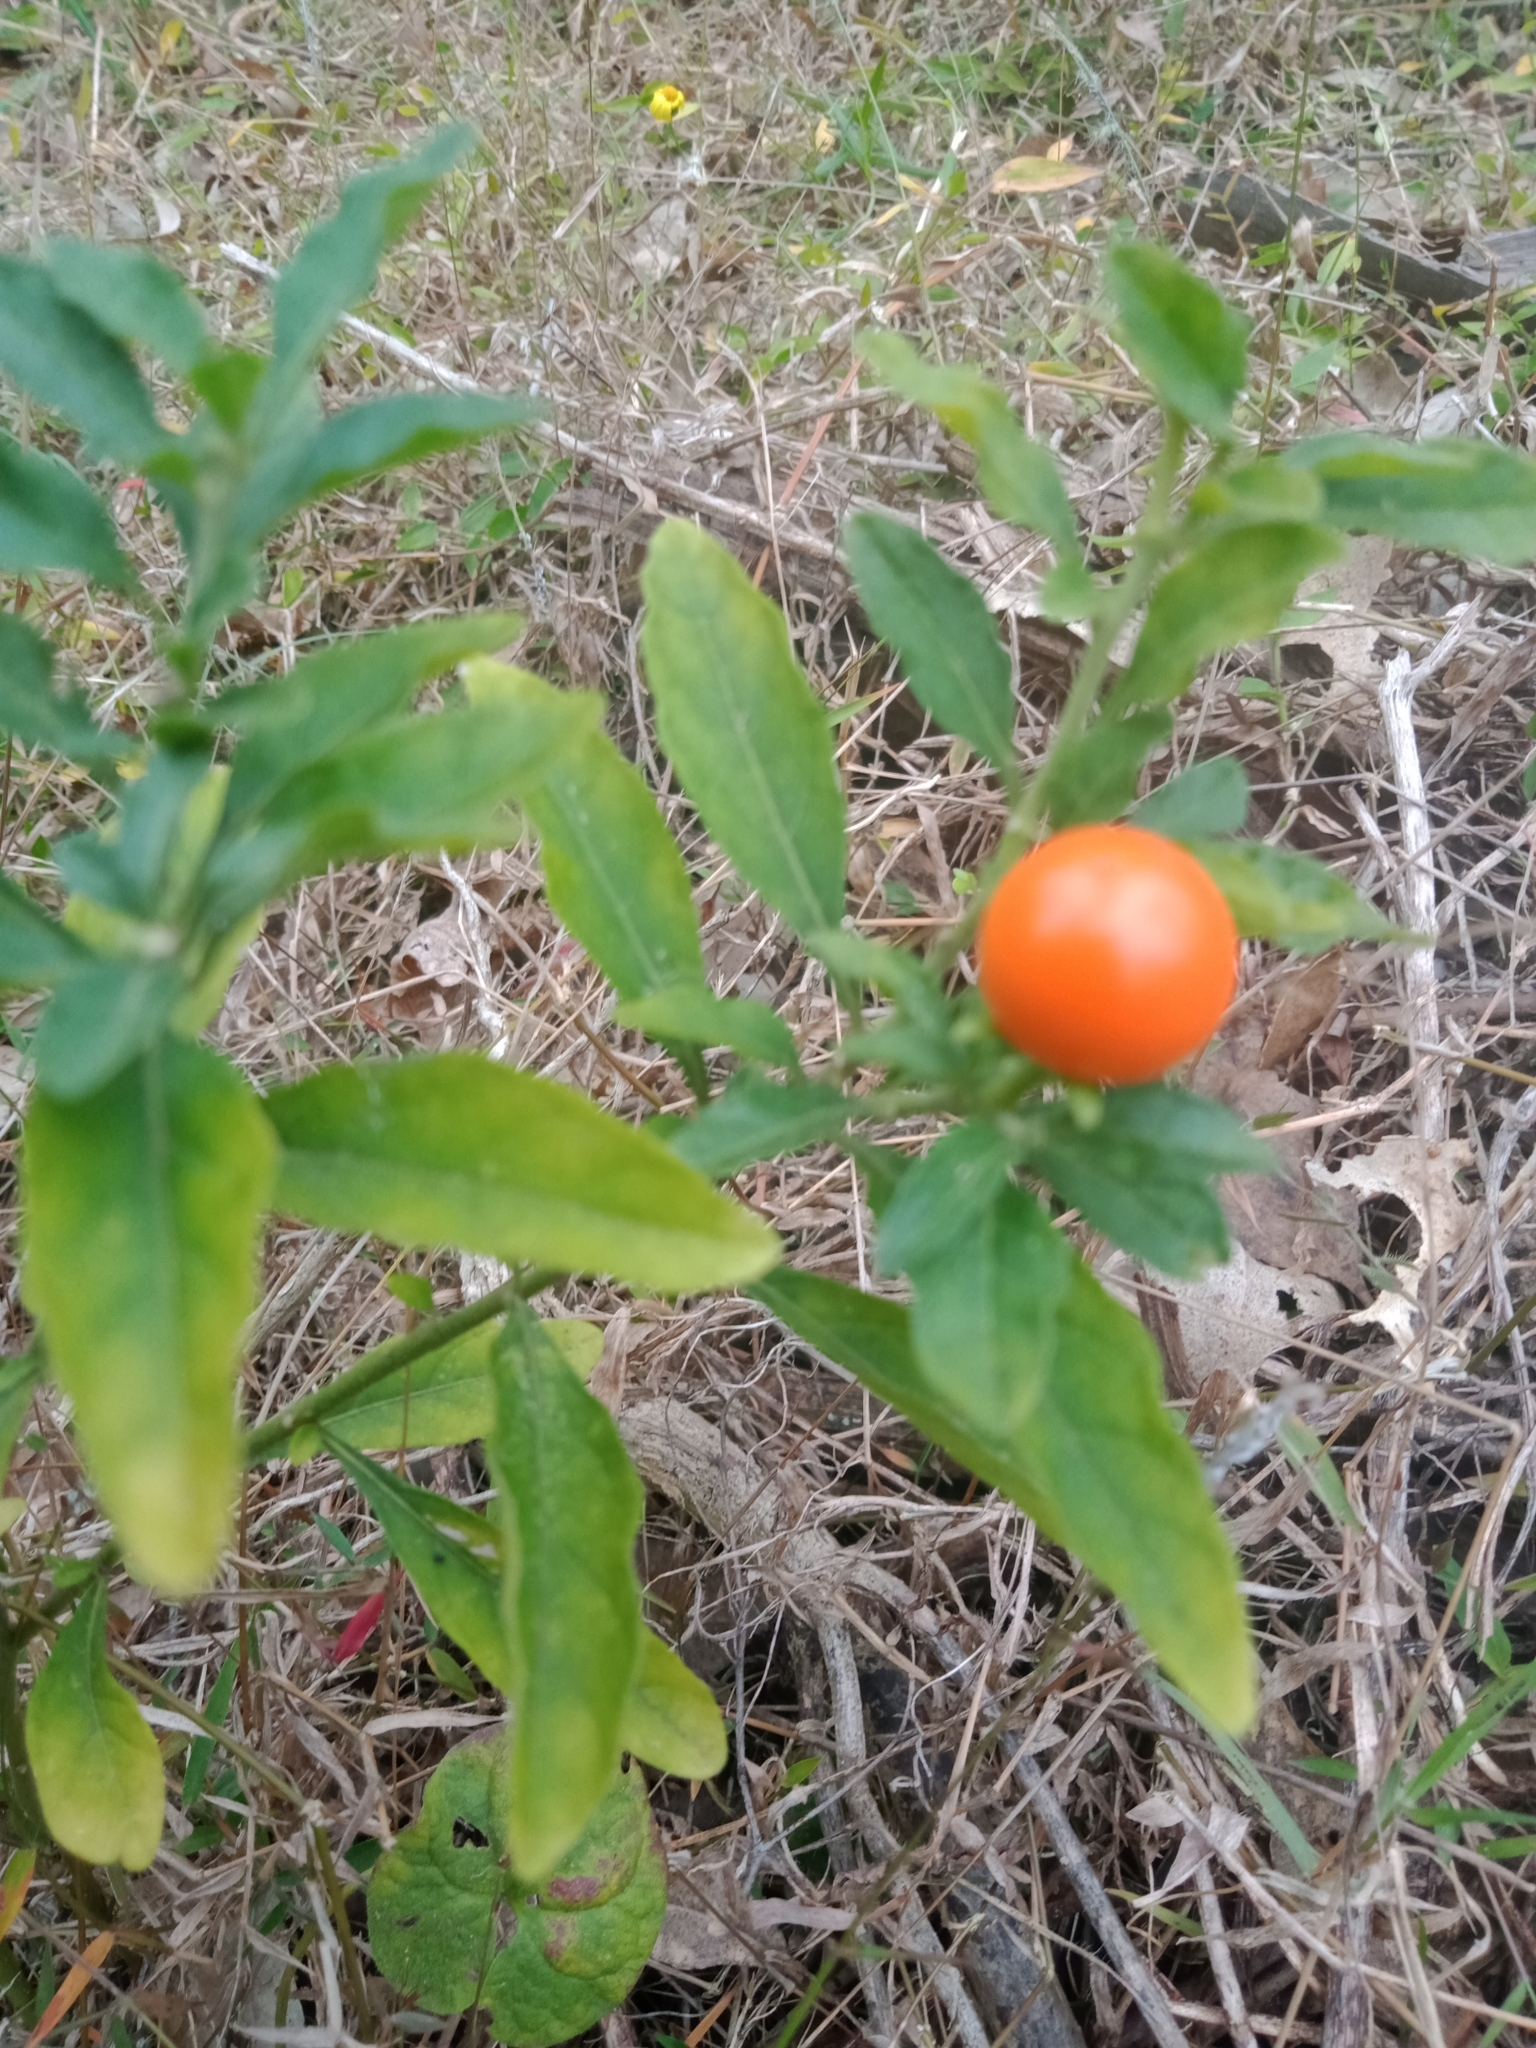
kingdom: Plantae
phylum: Tracheophyta
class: Magnoliopsida
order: Solanales
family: Solanaceae
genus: Solanum
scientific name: Solanum pseudocapsicum
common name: Jerusalem cherry
